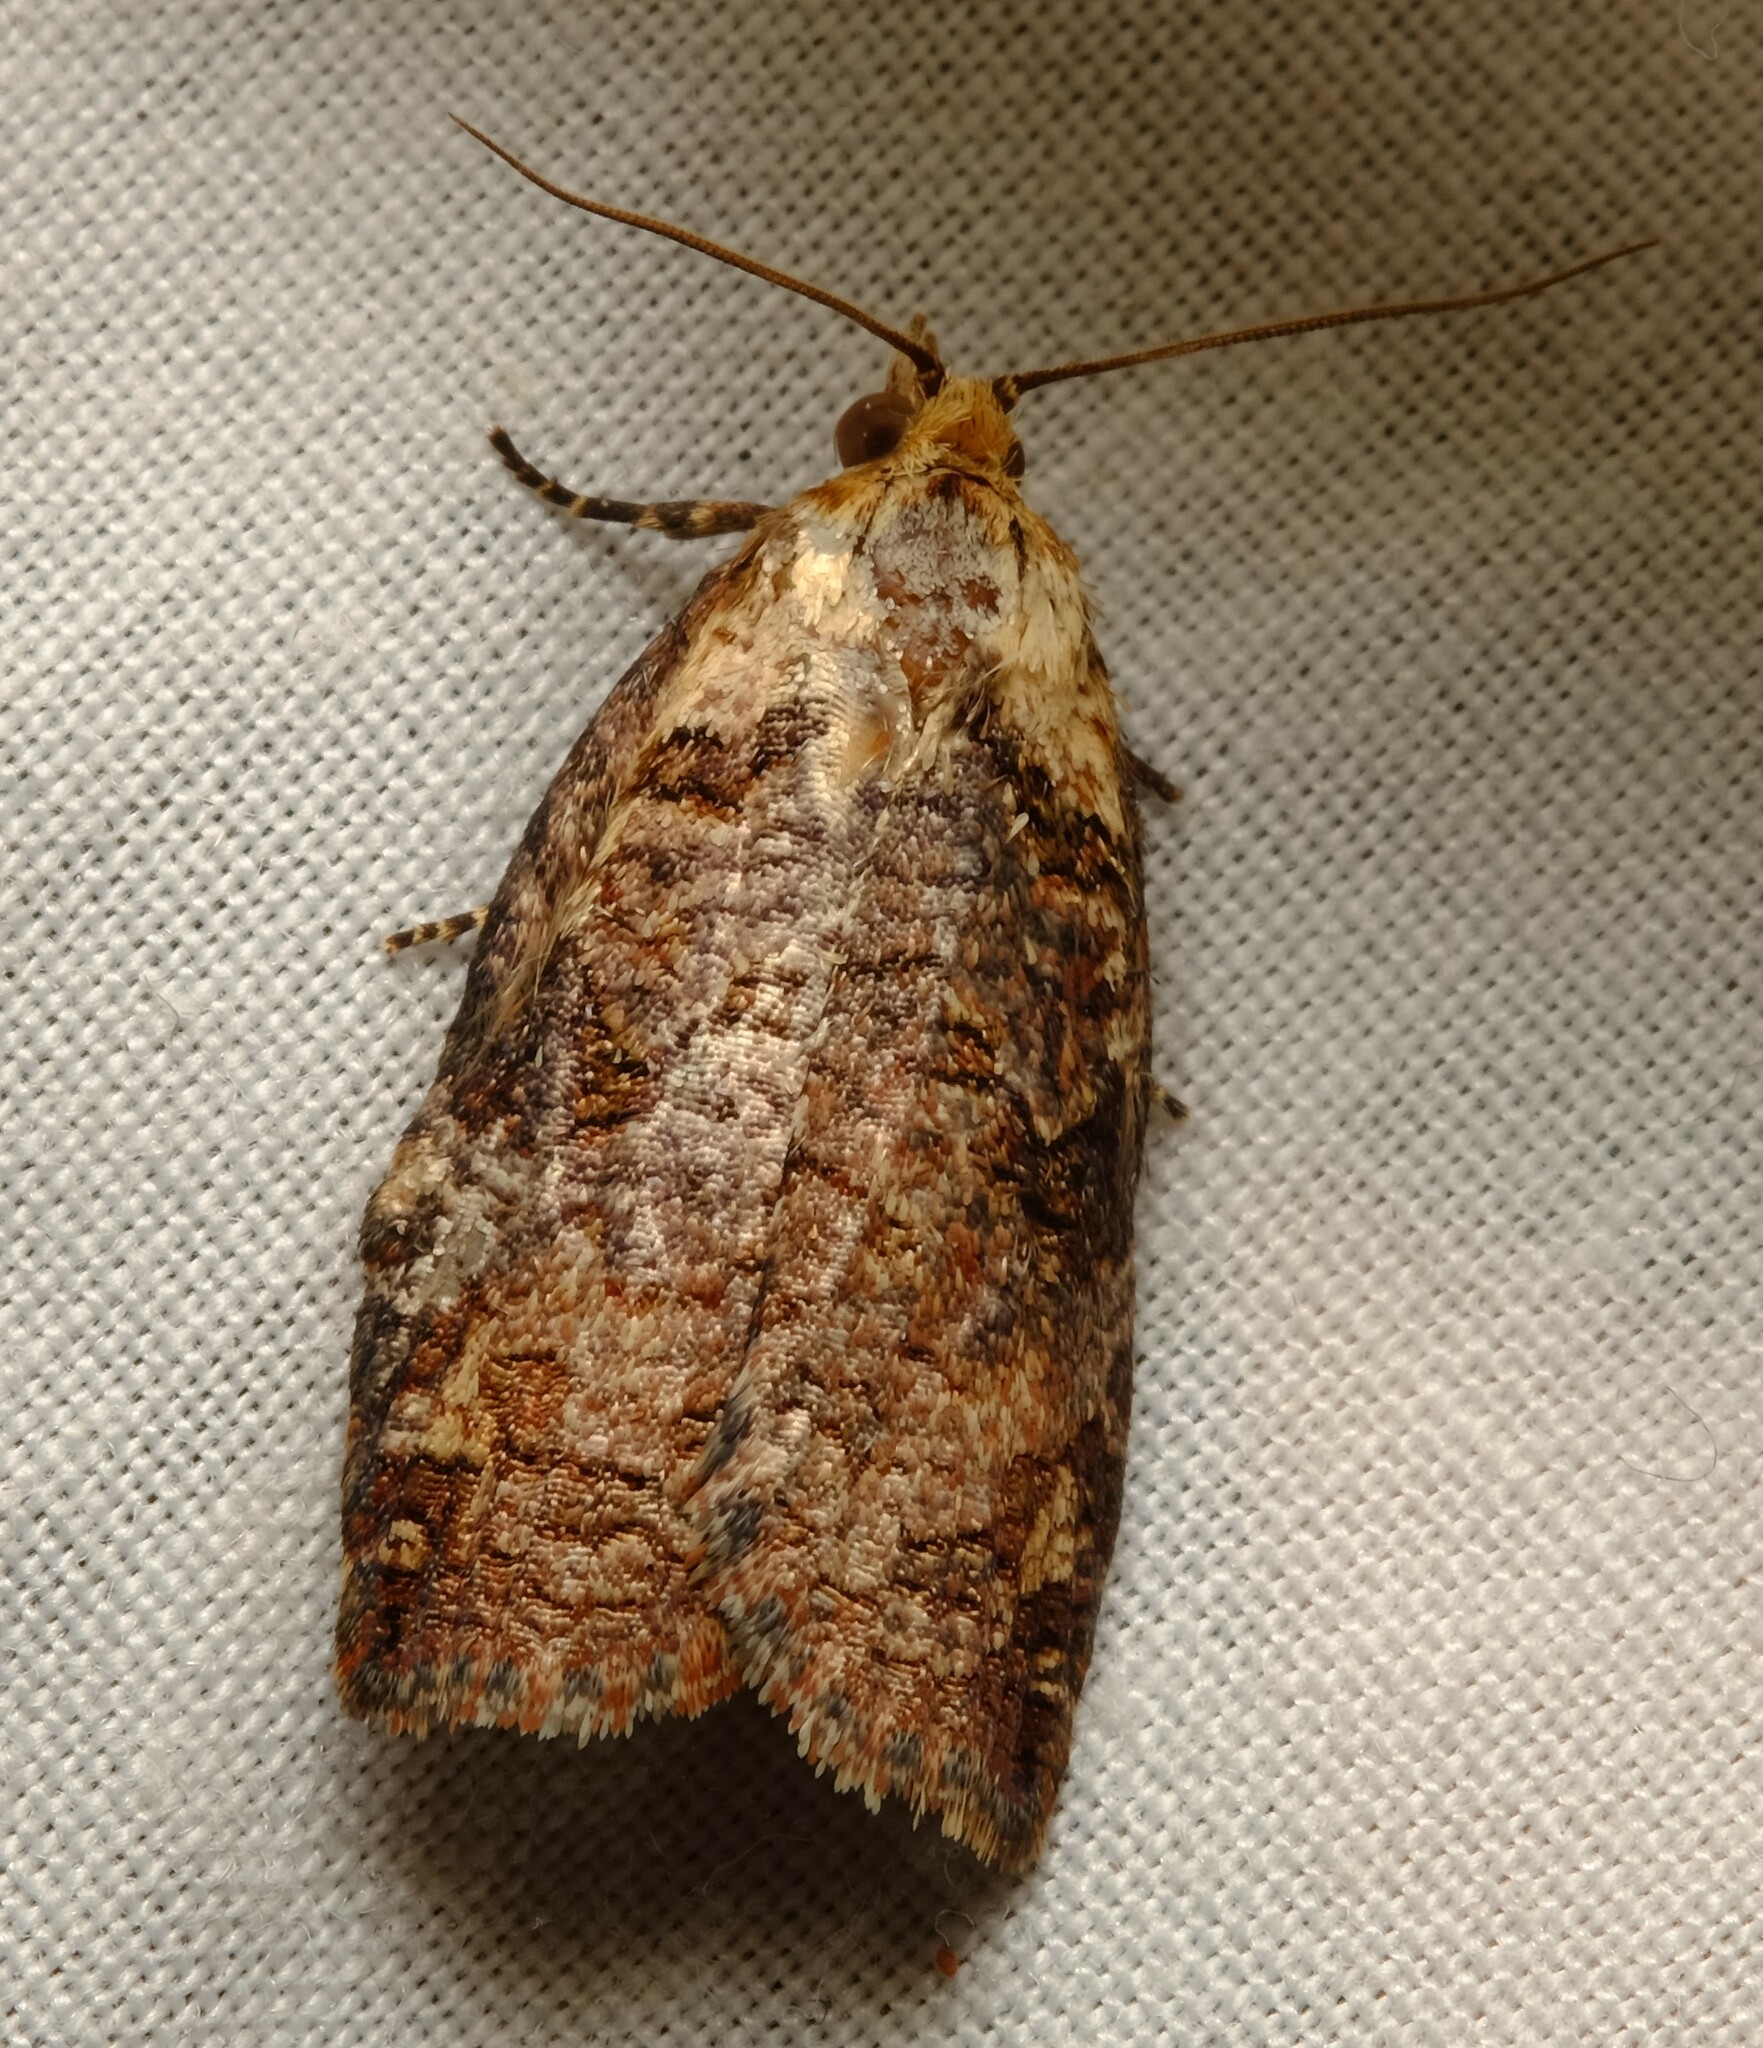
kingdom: Animalia
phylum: Arthropoda
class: Insecta
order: Lepidoptera
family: Tortricidae
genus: Cryptoptila
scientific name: Cryptoptila australana
